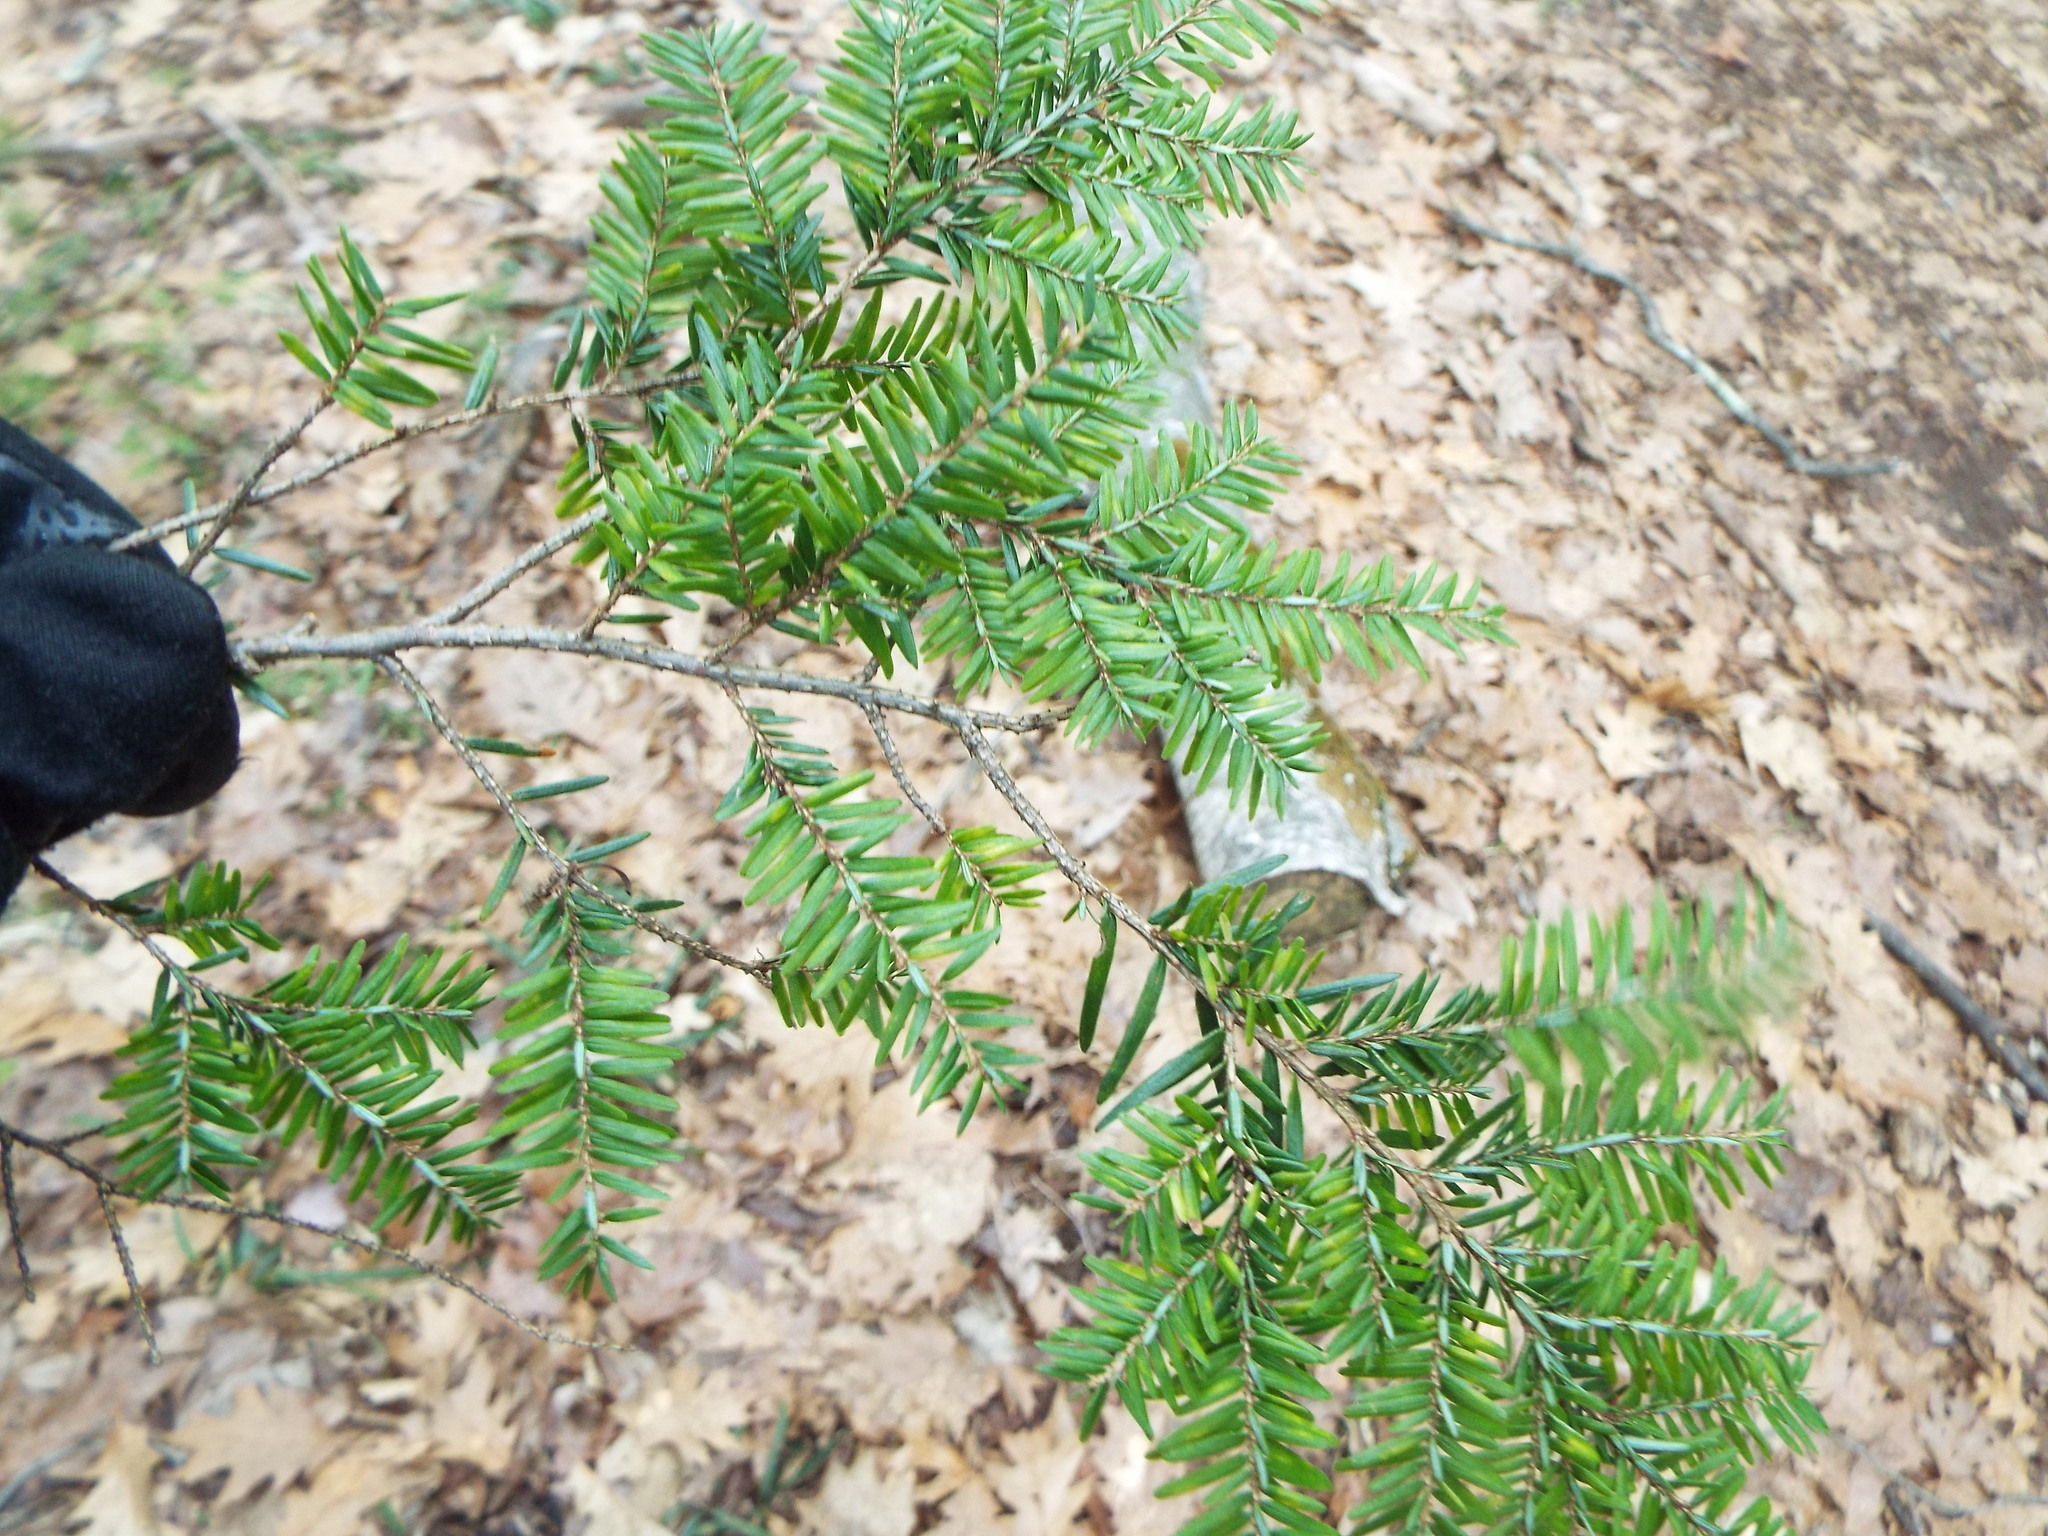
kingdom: Plantae
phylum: Tracheophyta
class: Pinopsida
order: Pinales
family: Pinaceae
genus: Tsuga
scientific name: Tsuga canadensis
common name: Eastern hemlock
